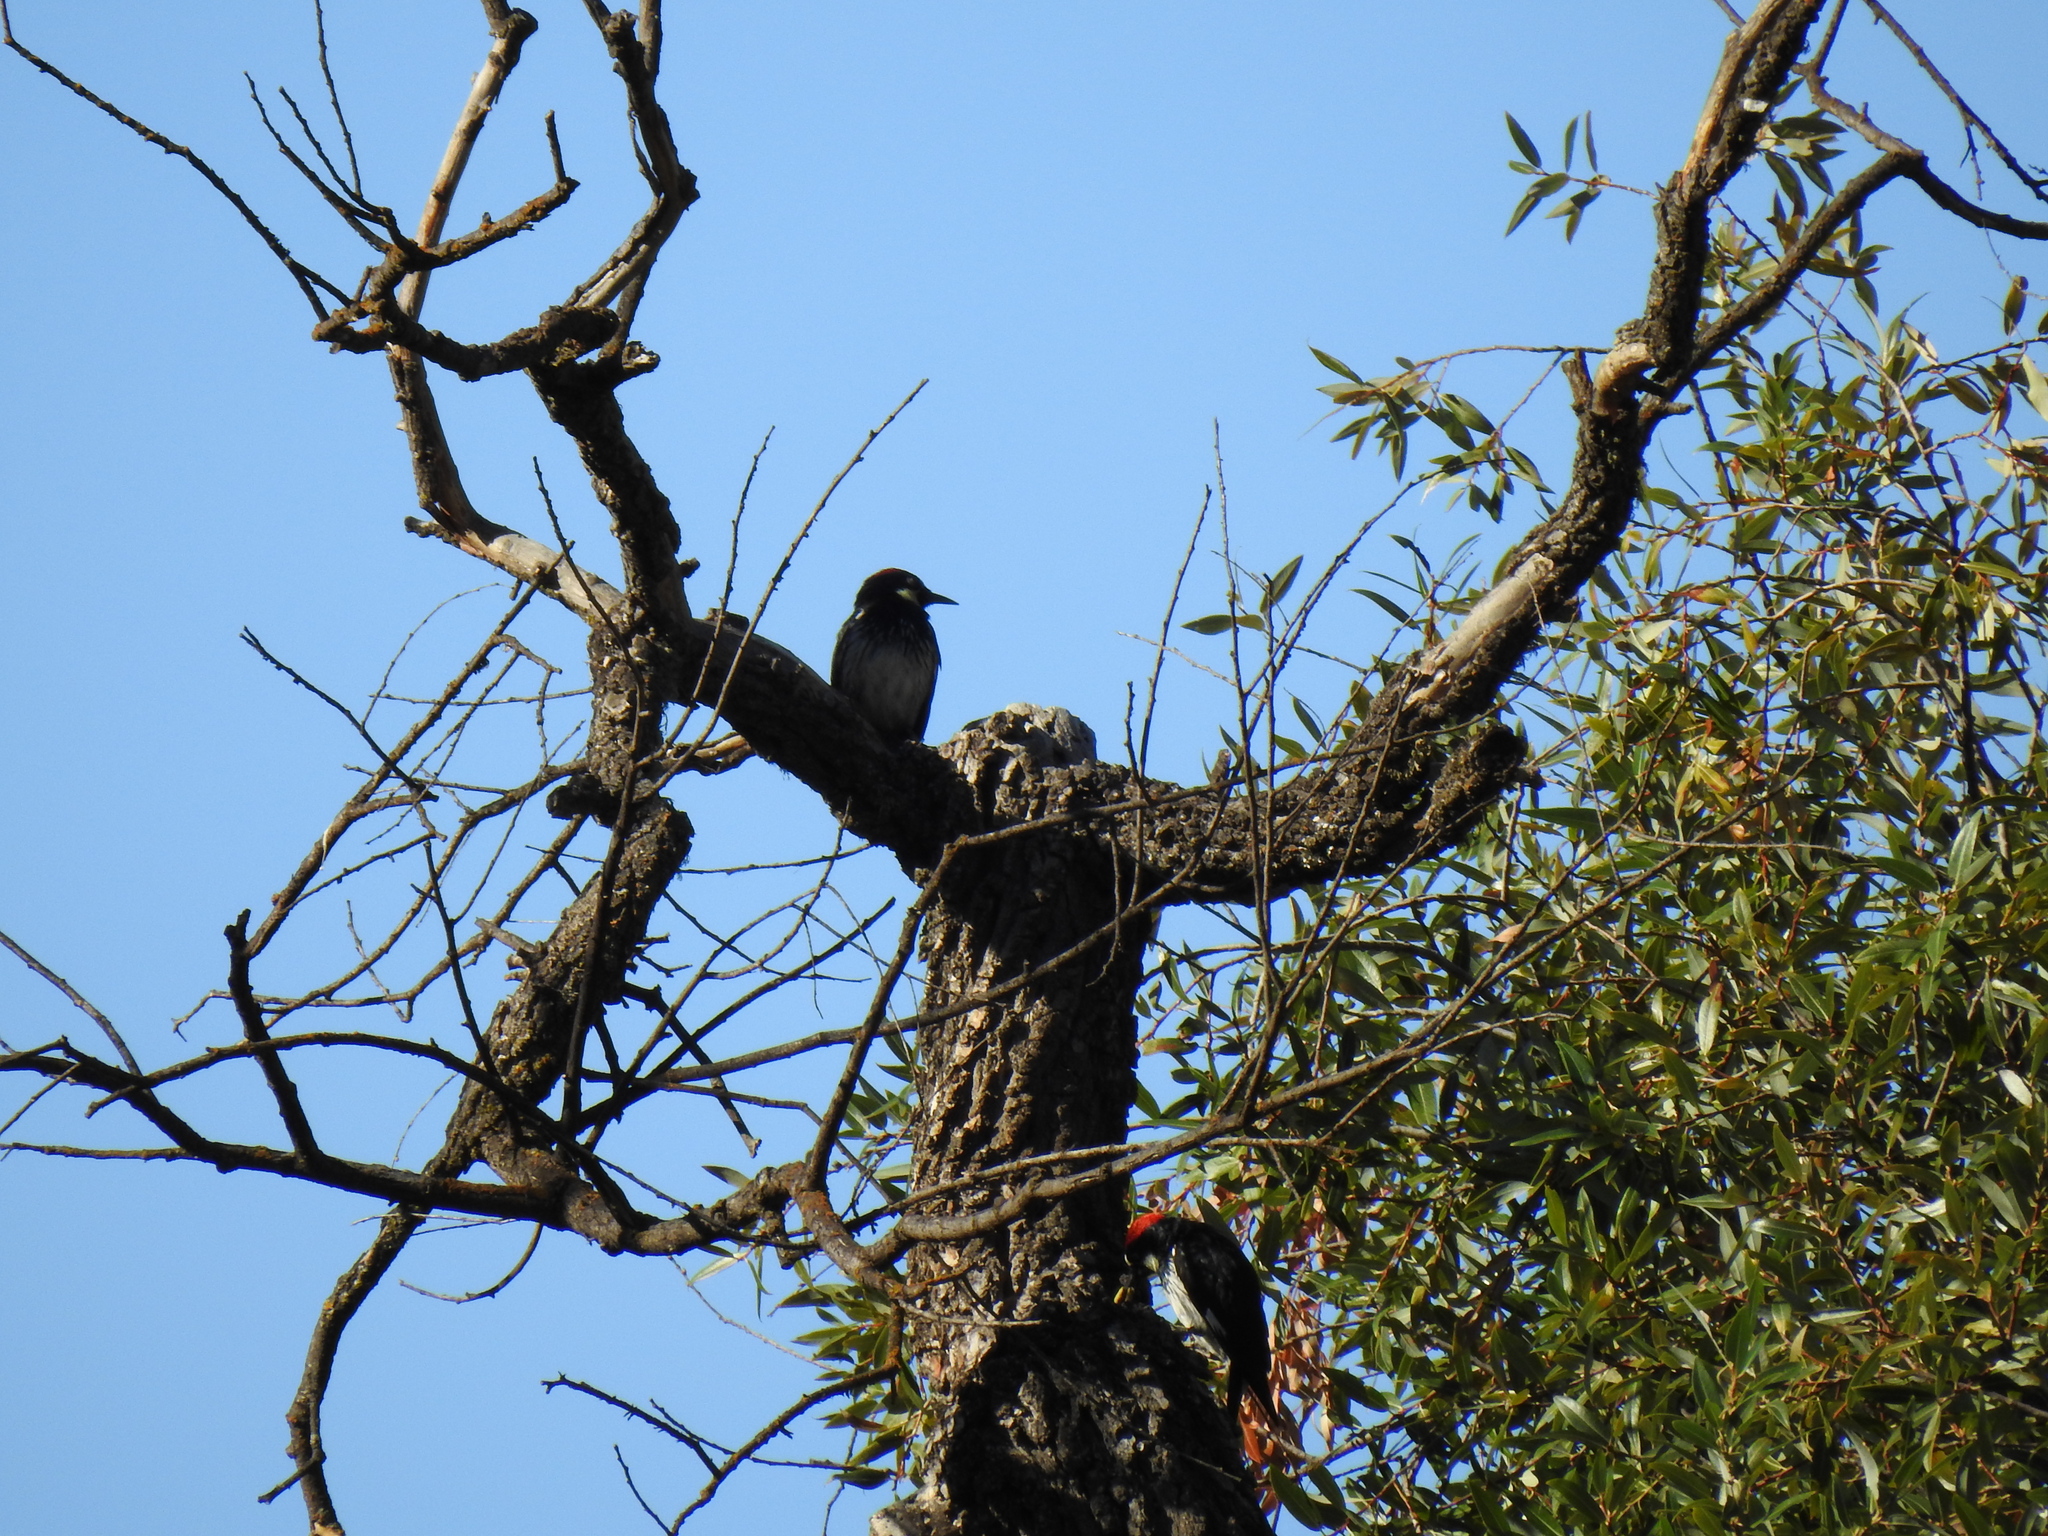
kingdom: Animalia
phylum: Chordata
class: Aves
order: Piciformes
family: Picidae
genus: Melanerpes
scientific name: Melanerpes formicivorus
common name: Acorn woodpecker
